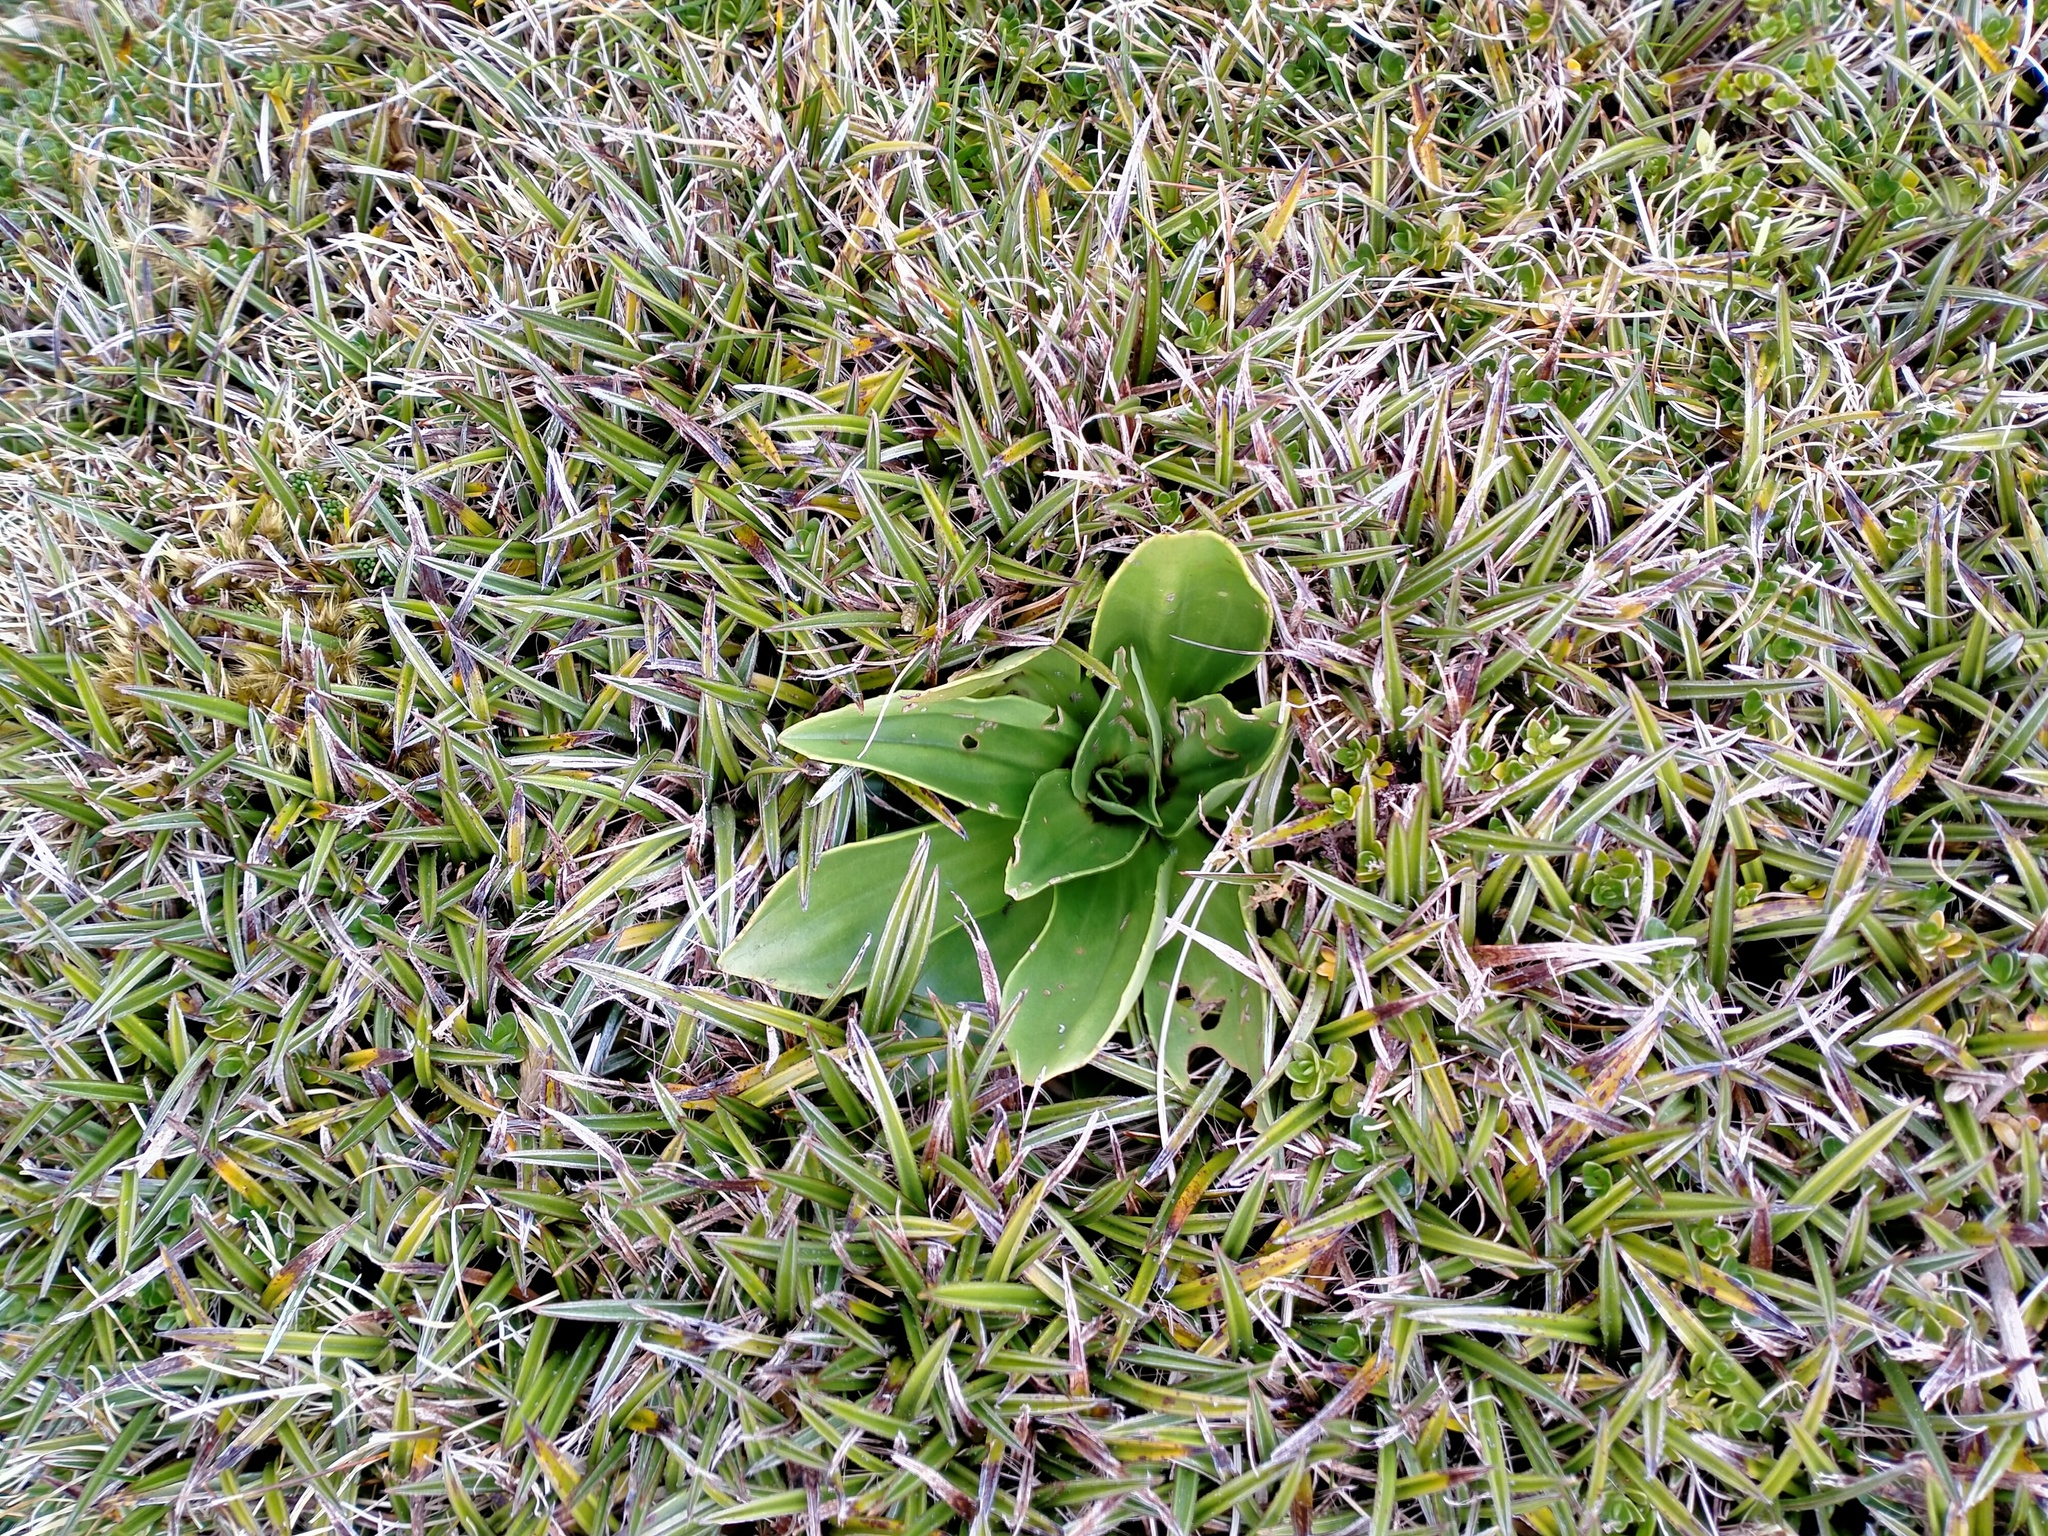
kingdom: Plantae
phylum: Tracheophyta
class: Magnoliopsida
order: Lamiales
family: Plantaginaceae
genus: Plantago
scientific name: Plantago aucklandica
